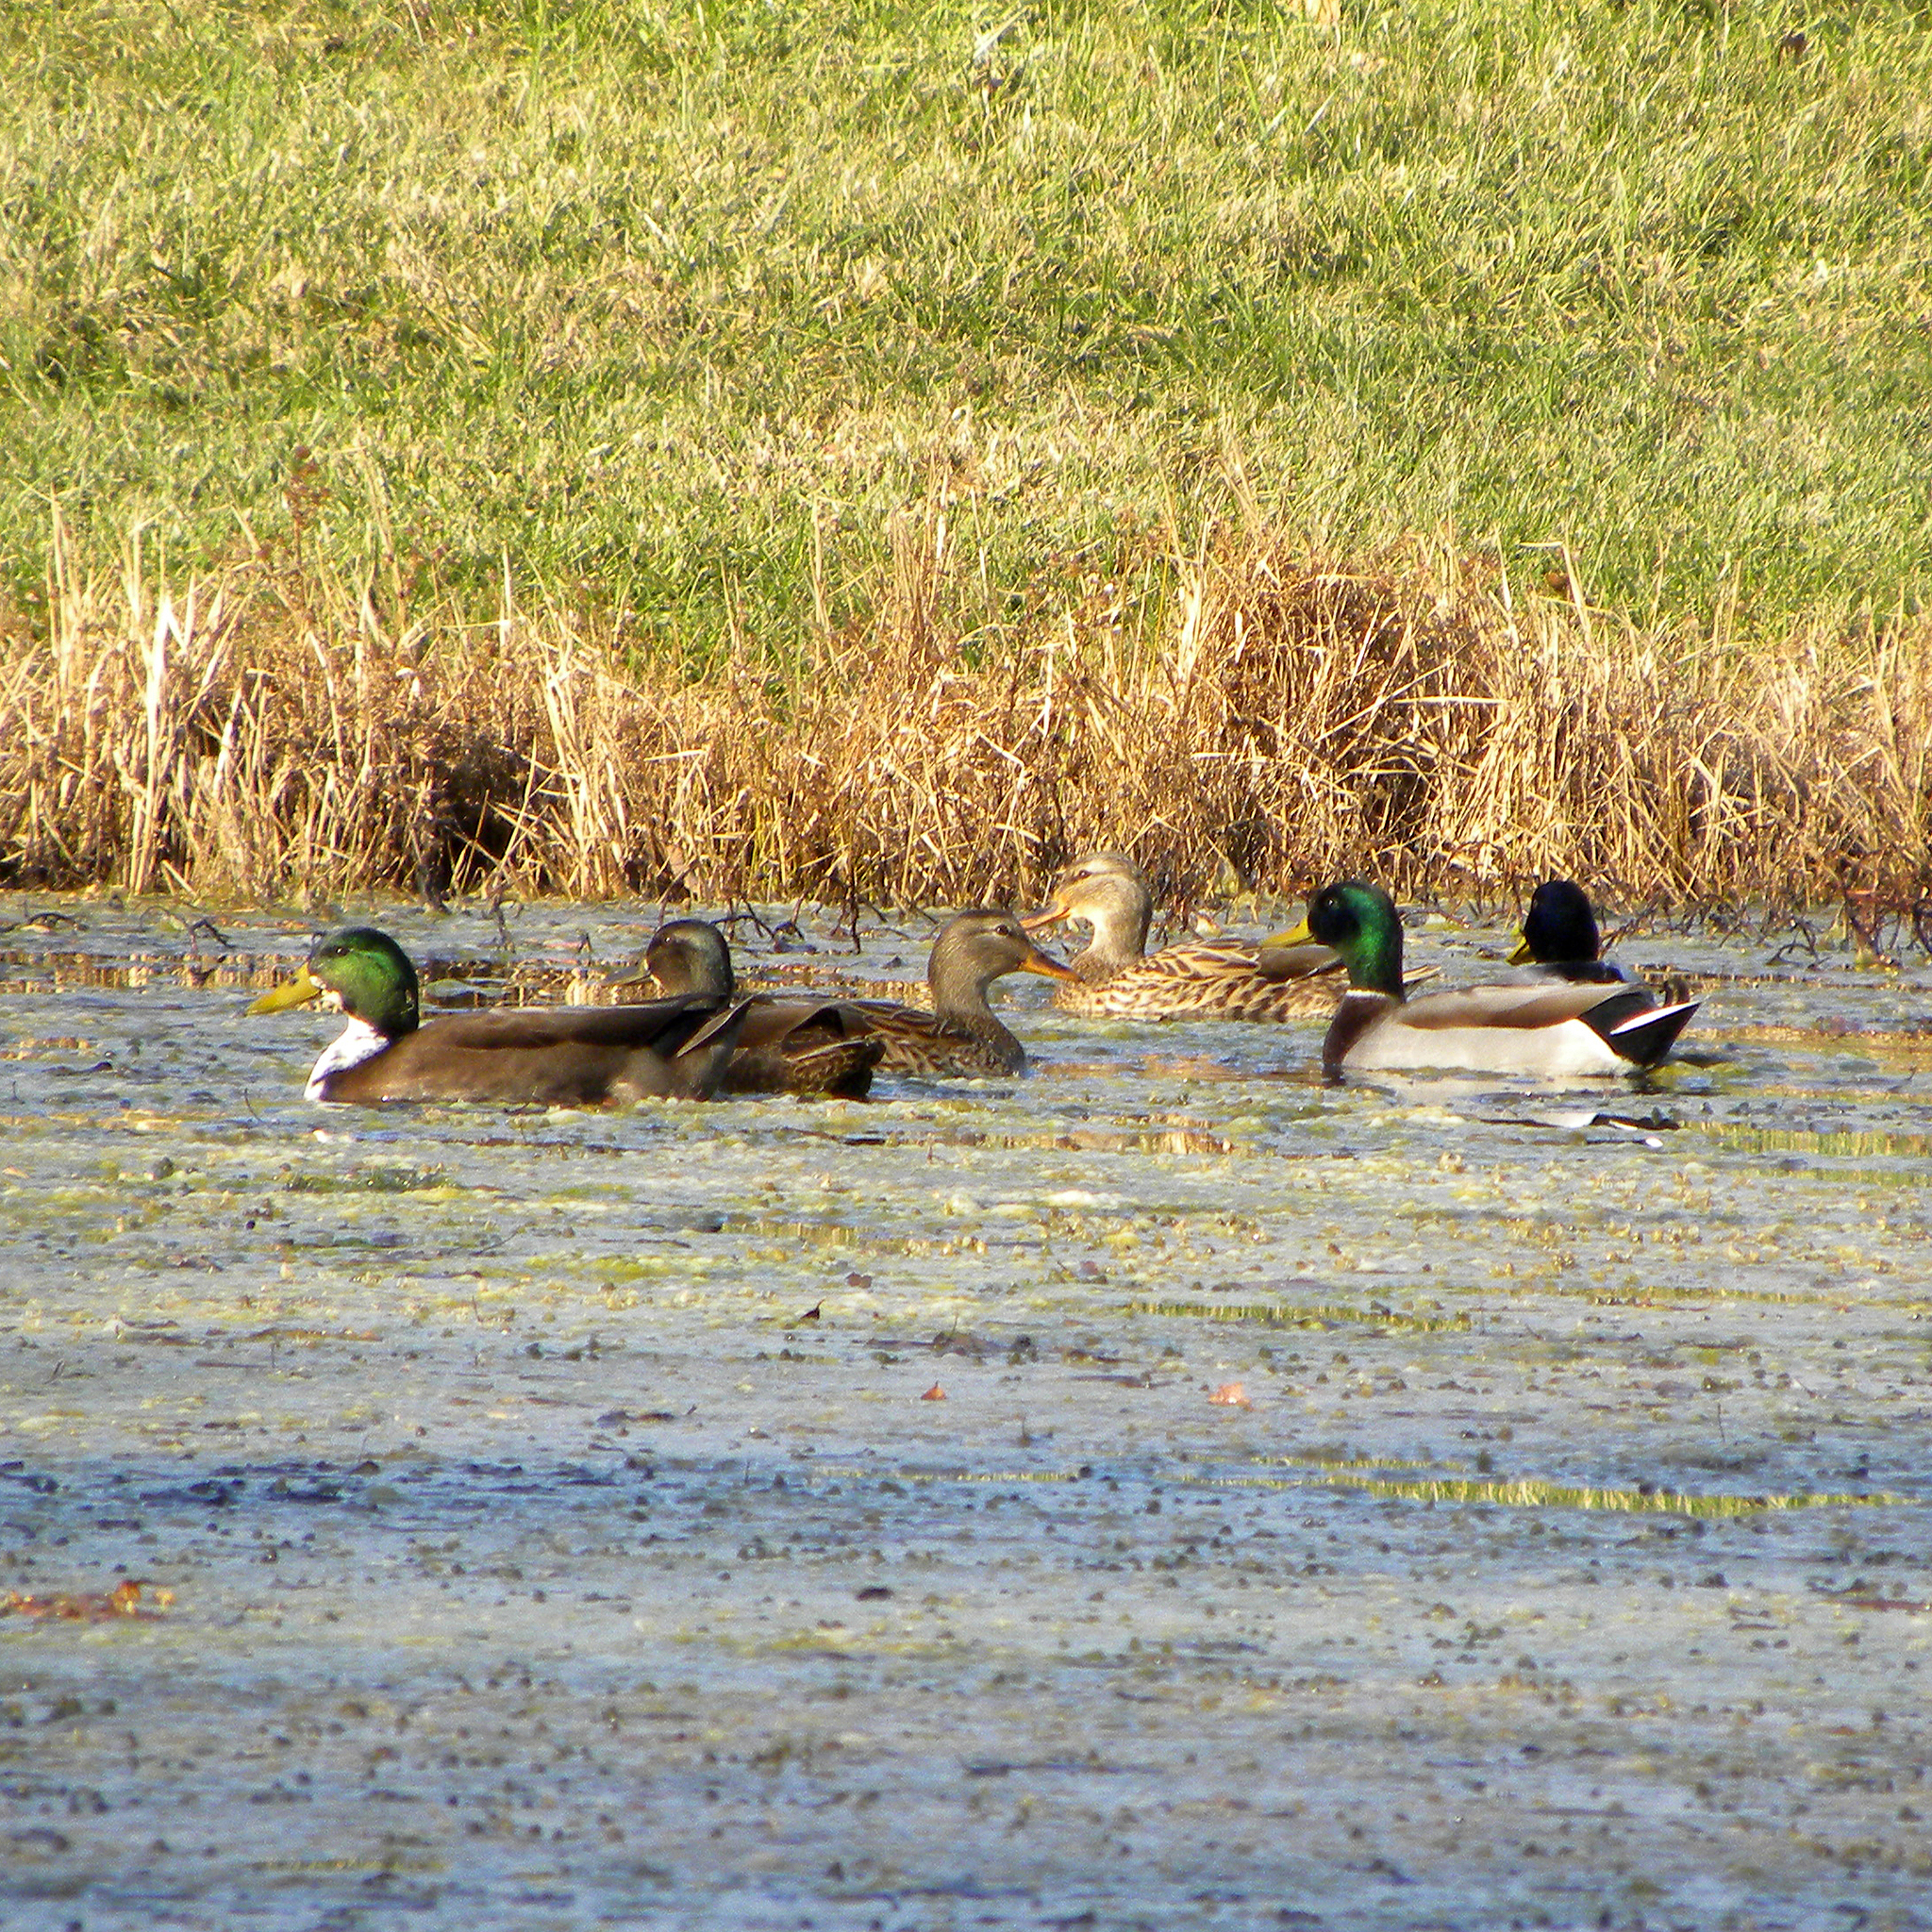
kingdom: Animalia
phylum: Chordata
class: Aves
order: Anseriformes
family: Anatidae
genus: Anas
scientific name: Anas platyrhynchos
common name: Mallard
